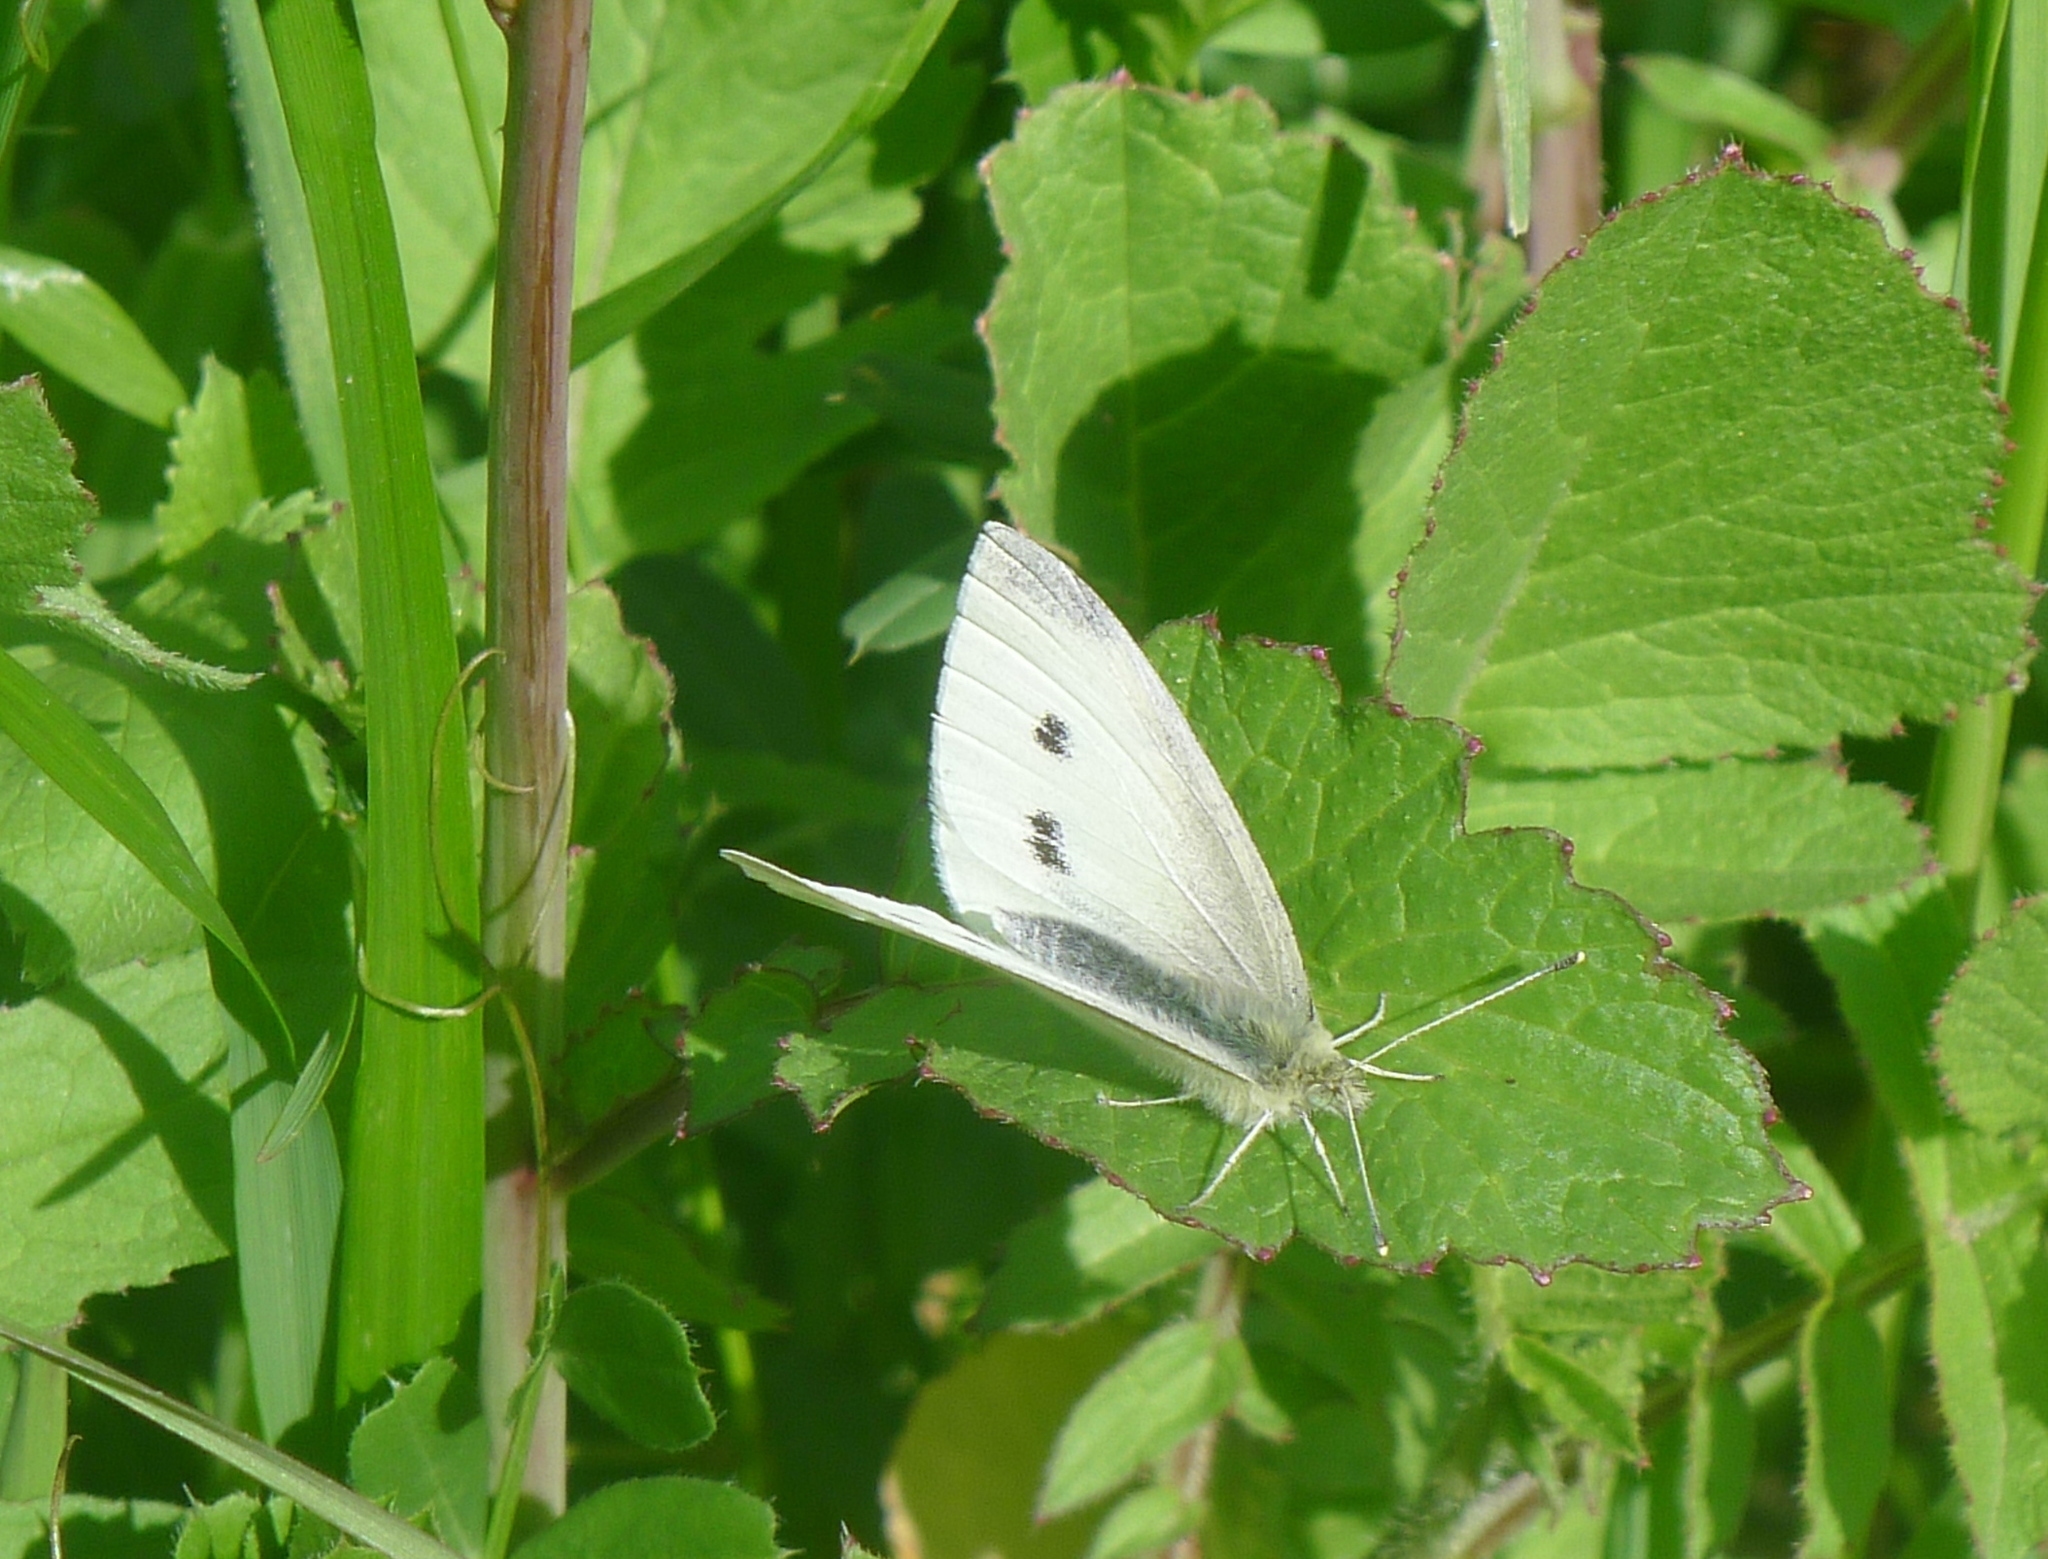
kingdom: Animalia
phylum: Arthropoda
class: Insecta
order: Lepidoptera
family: Pieridae
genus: Pieris
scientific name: Pieris rapae
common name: Small white
